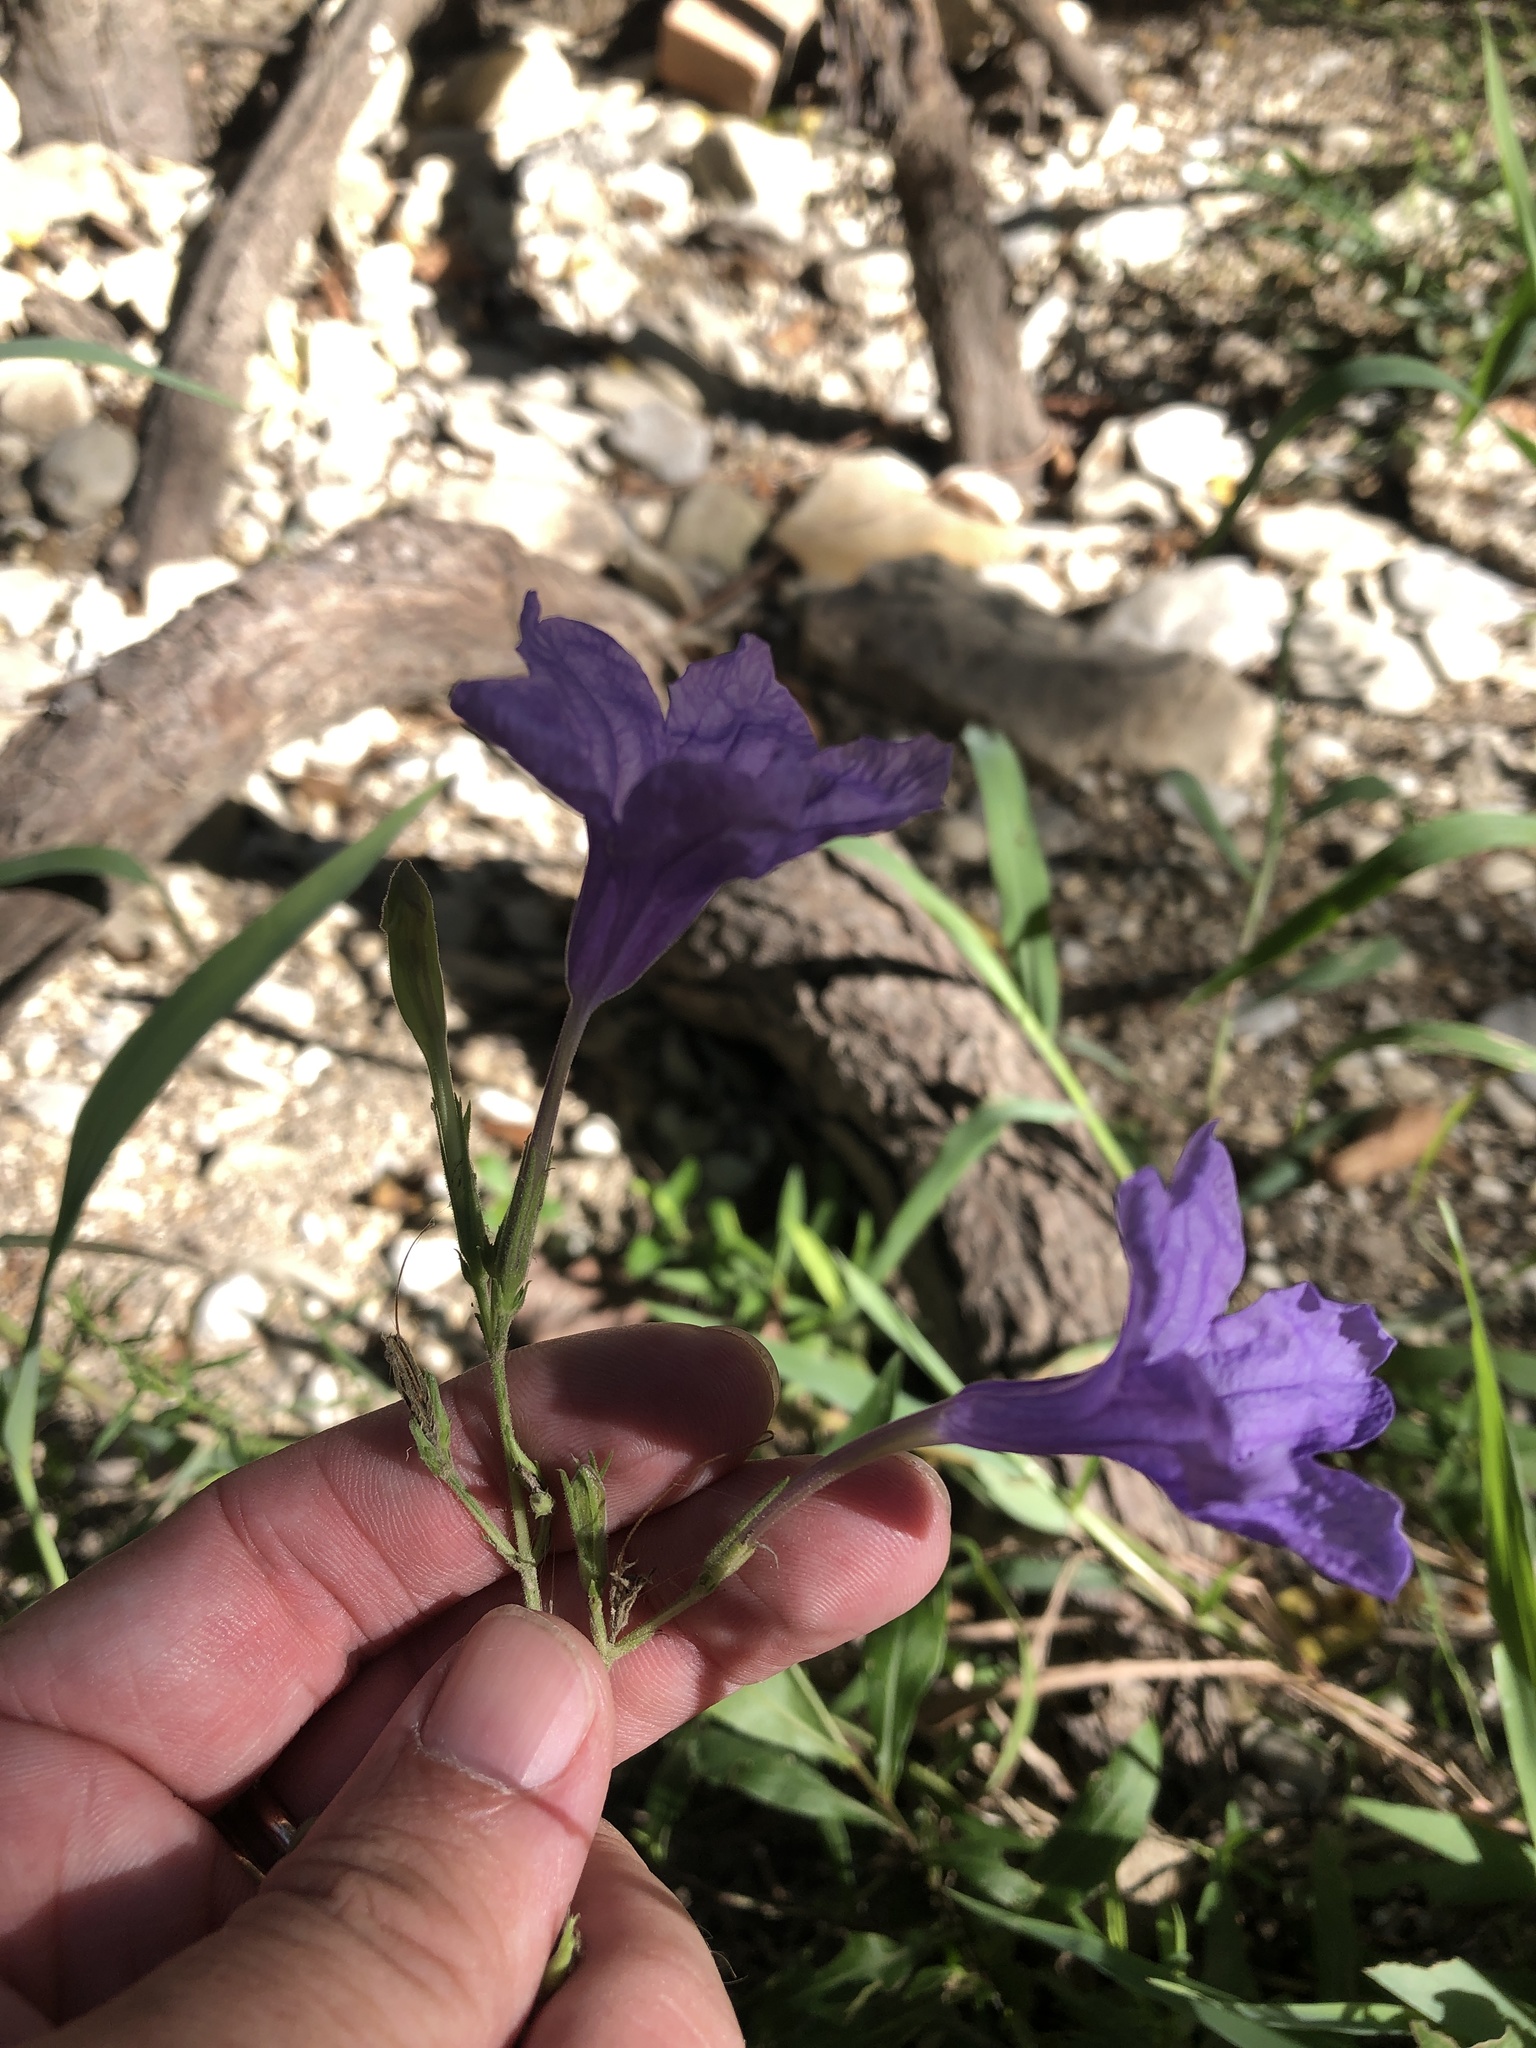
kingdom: Plantae
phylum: Tracheophyta
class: Magnoliopsida
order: Lamiales
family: Acanthaceae
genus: Ruellia
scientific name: Ruellia ciliatiflora
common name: Hairyflower wild petunia
